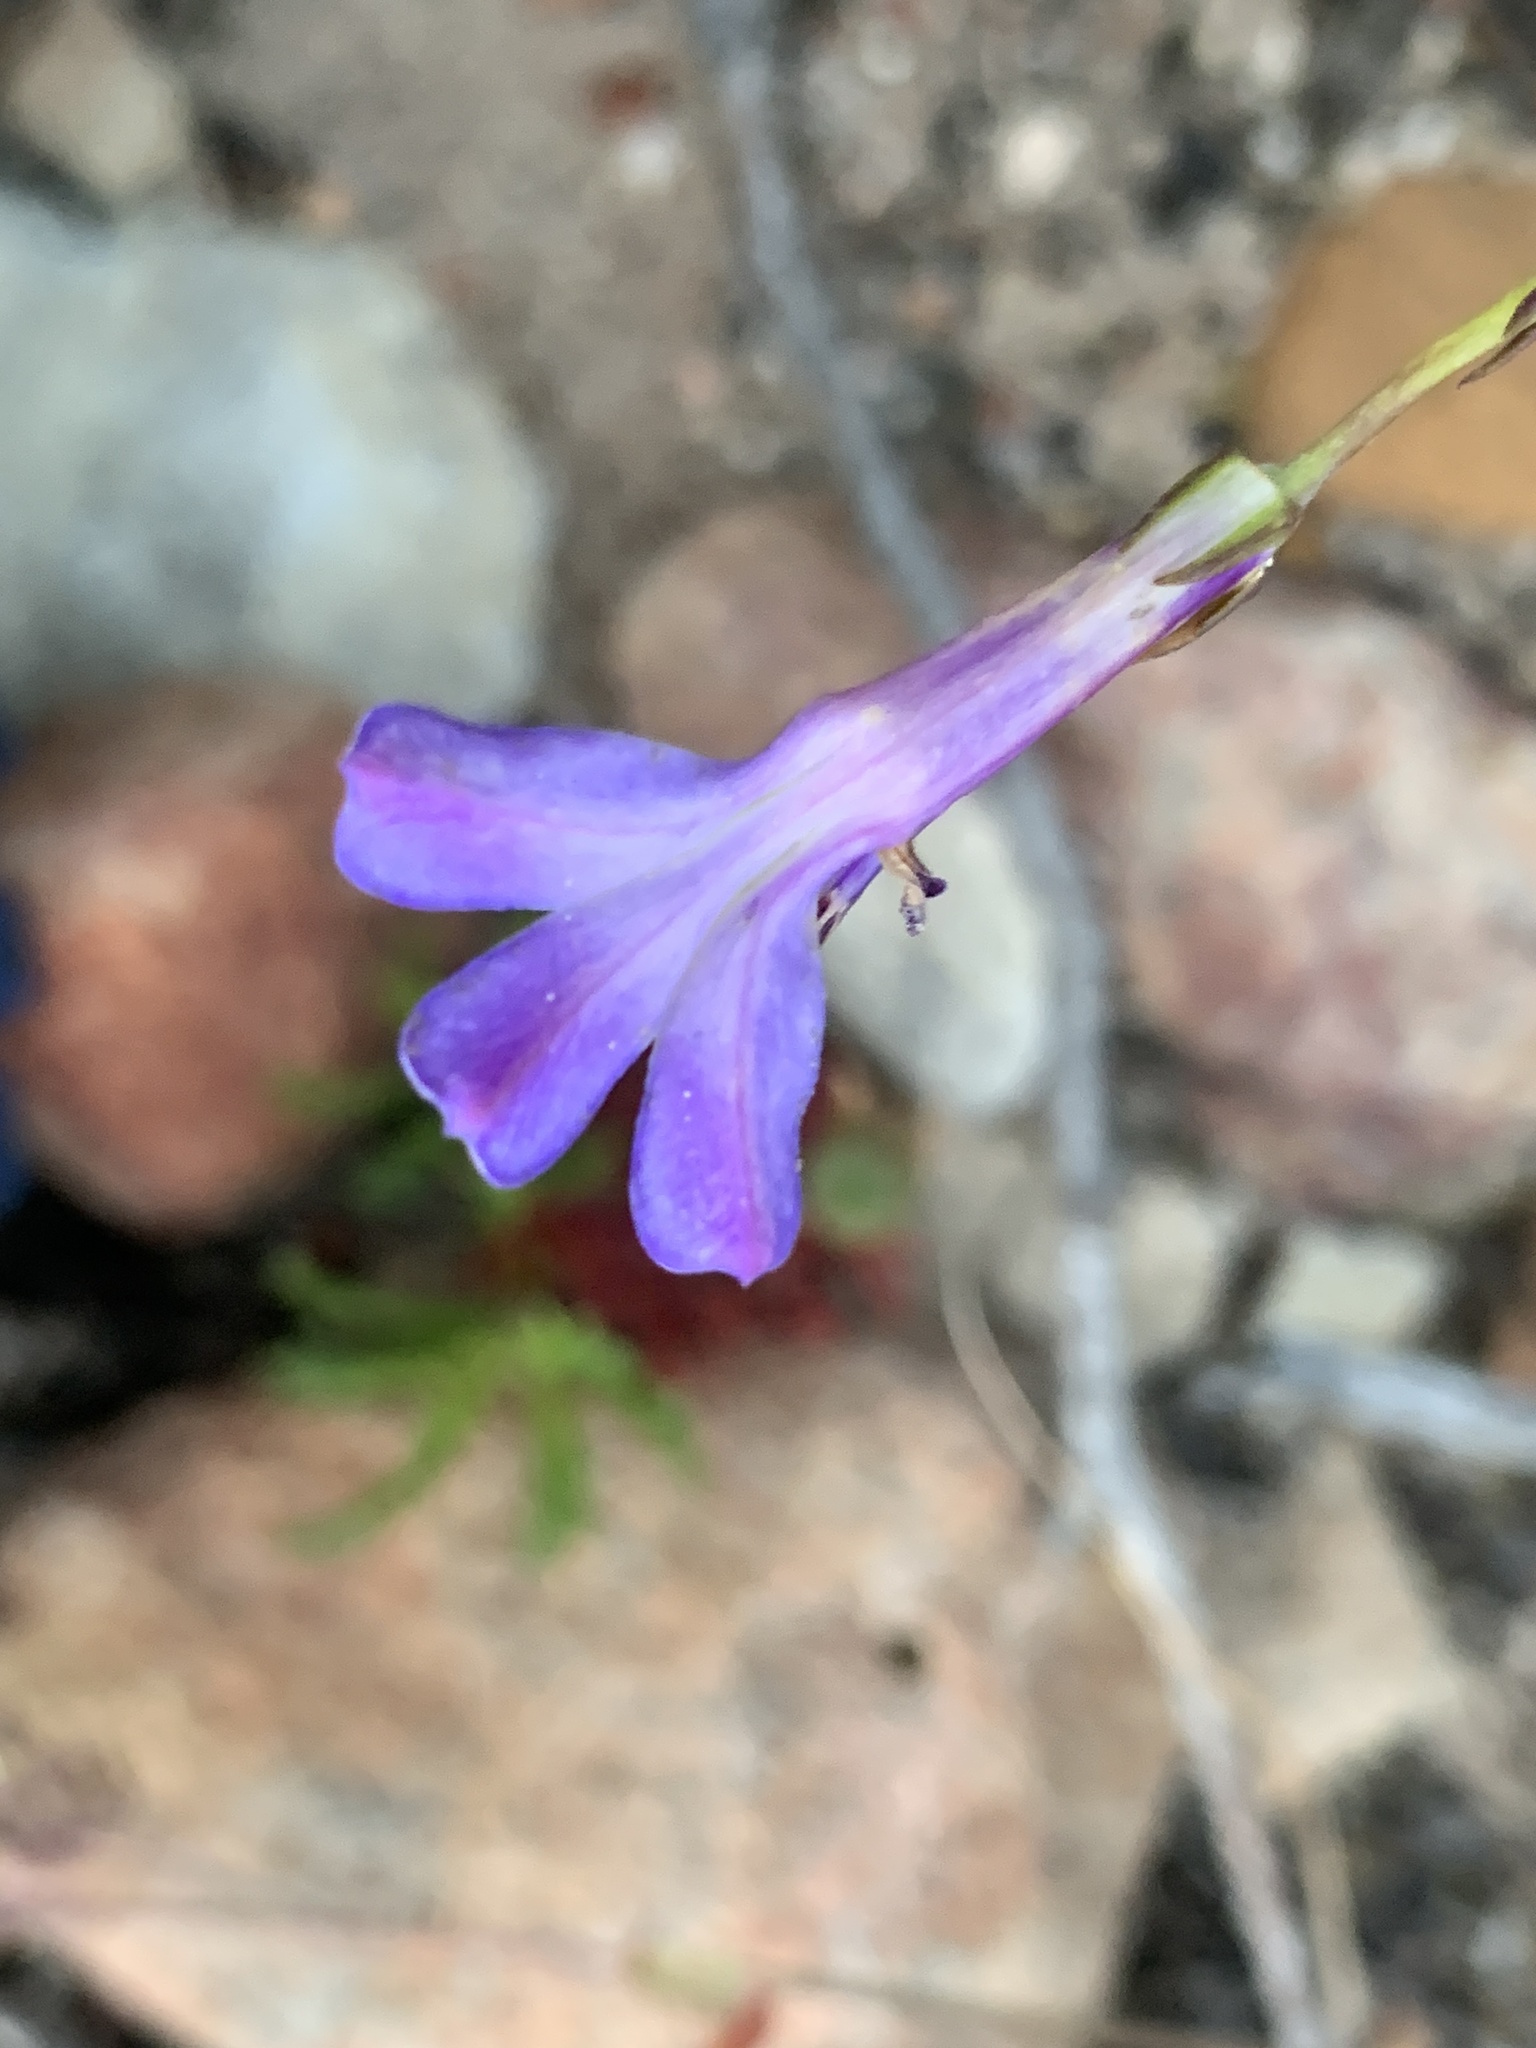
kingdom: Plantae
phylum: Tracheophyta
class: Magnoliopsida
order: Asterales
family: Campanulaceae
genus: Lobelia
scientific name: Lobelia coronopifolia
